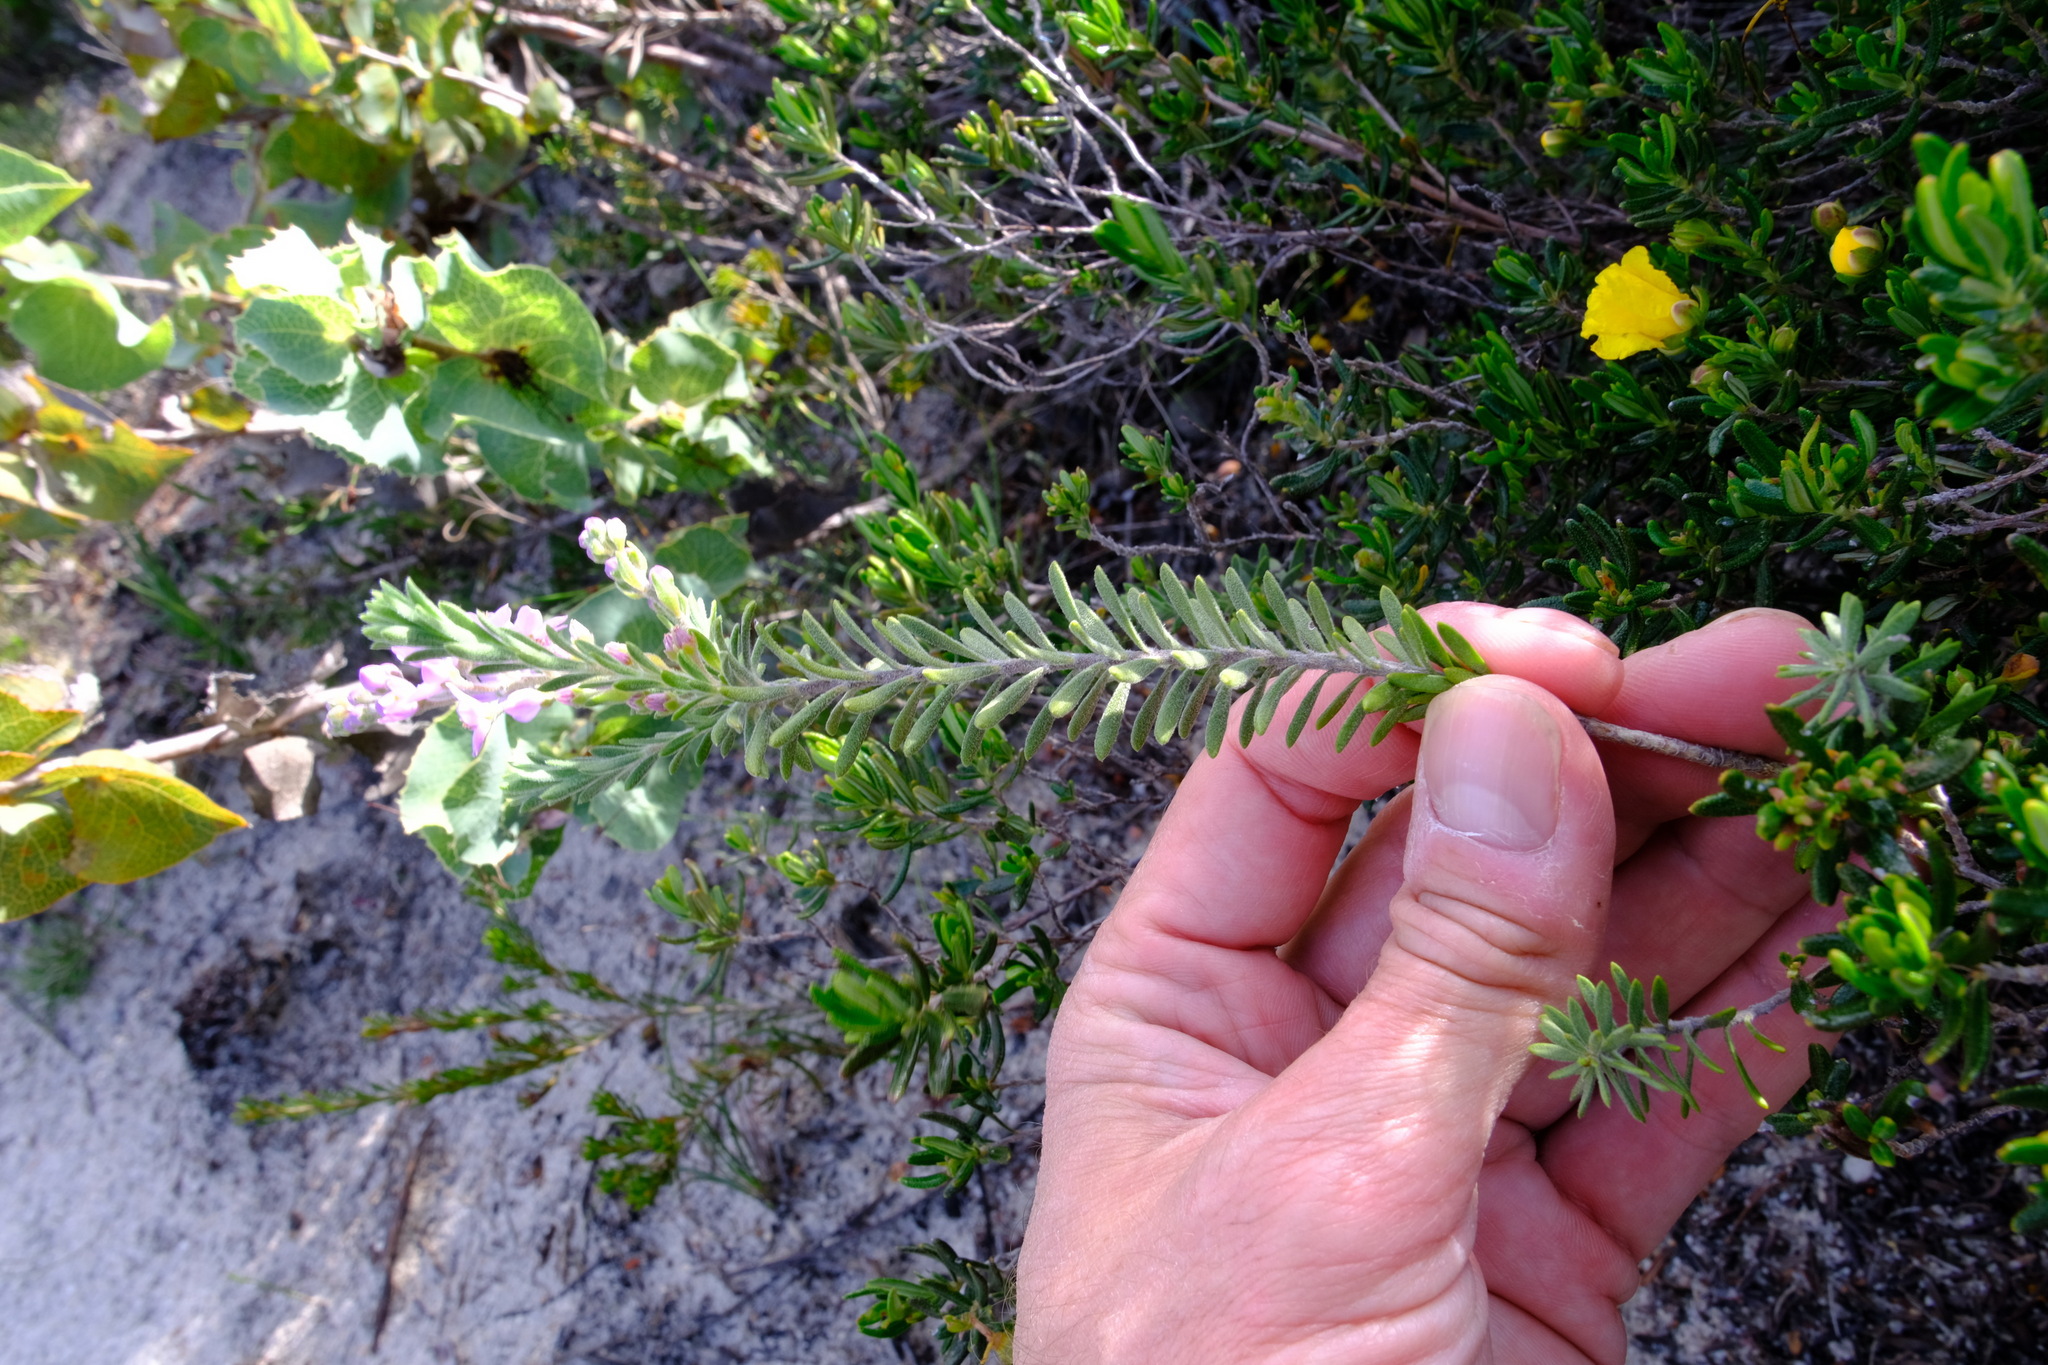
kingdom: Plantae
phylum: Tracheophyta
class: Magnoliopsida
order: Sapindales
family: Rutaceae
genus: Philotheca
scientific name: Philotheca spicata
